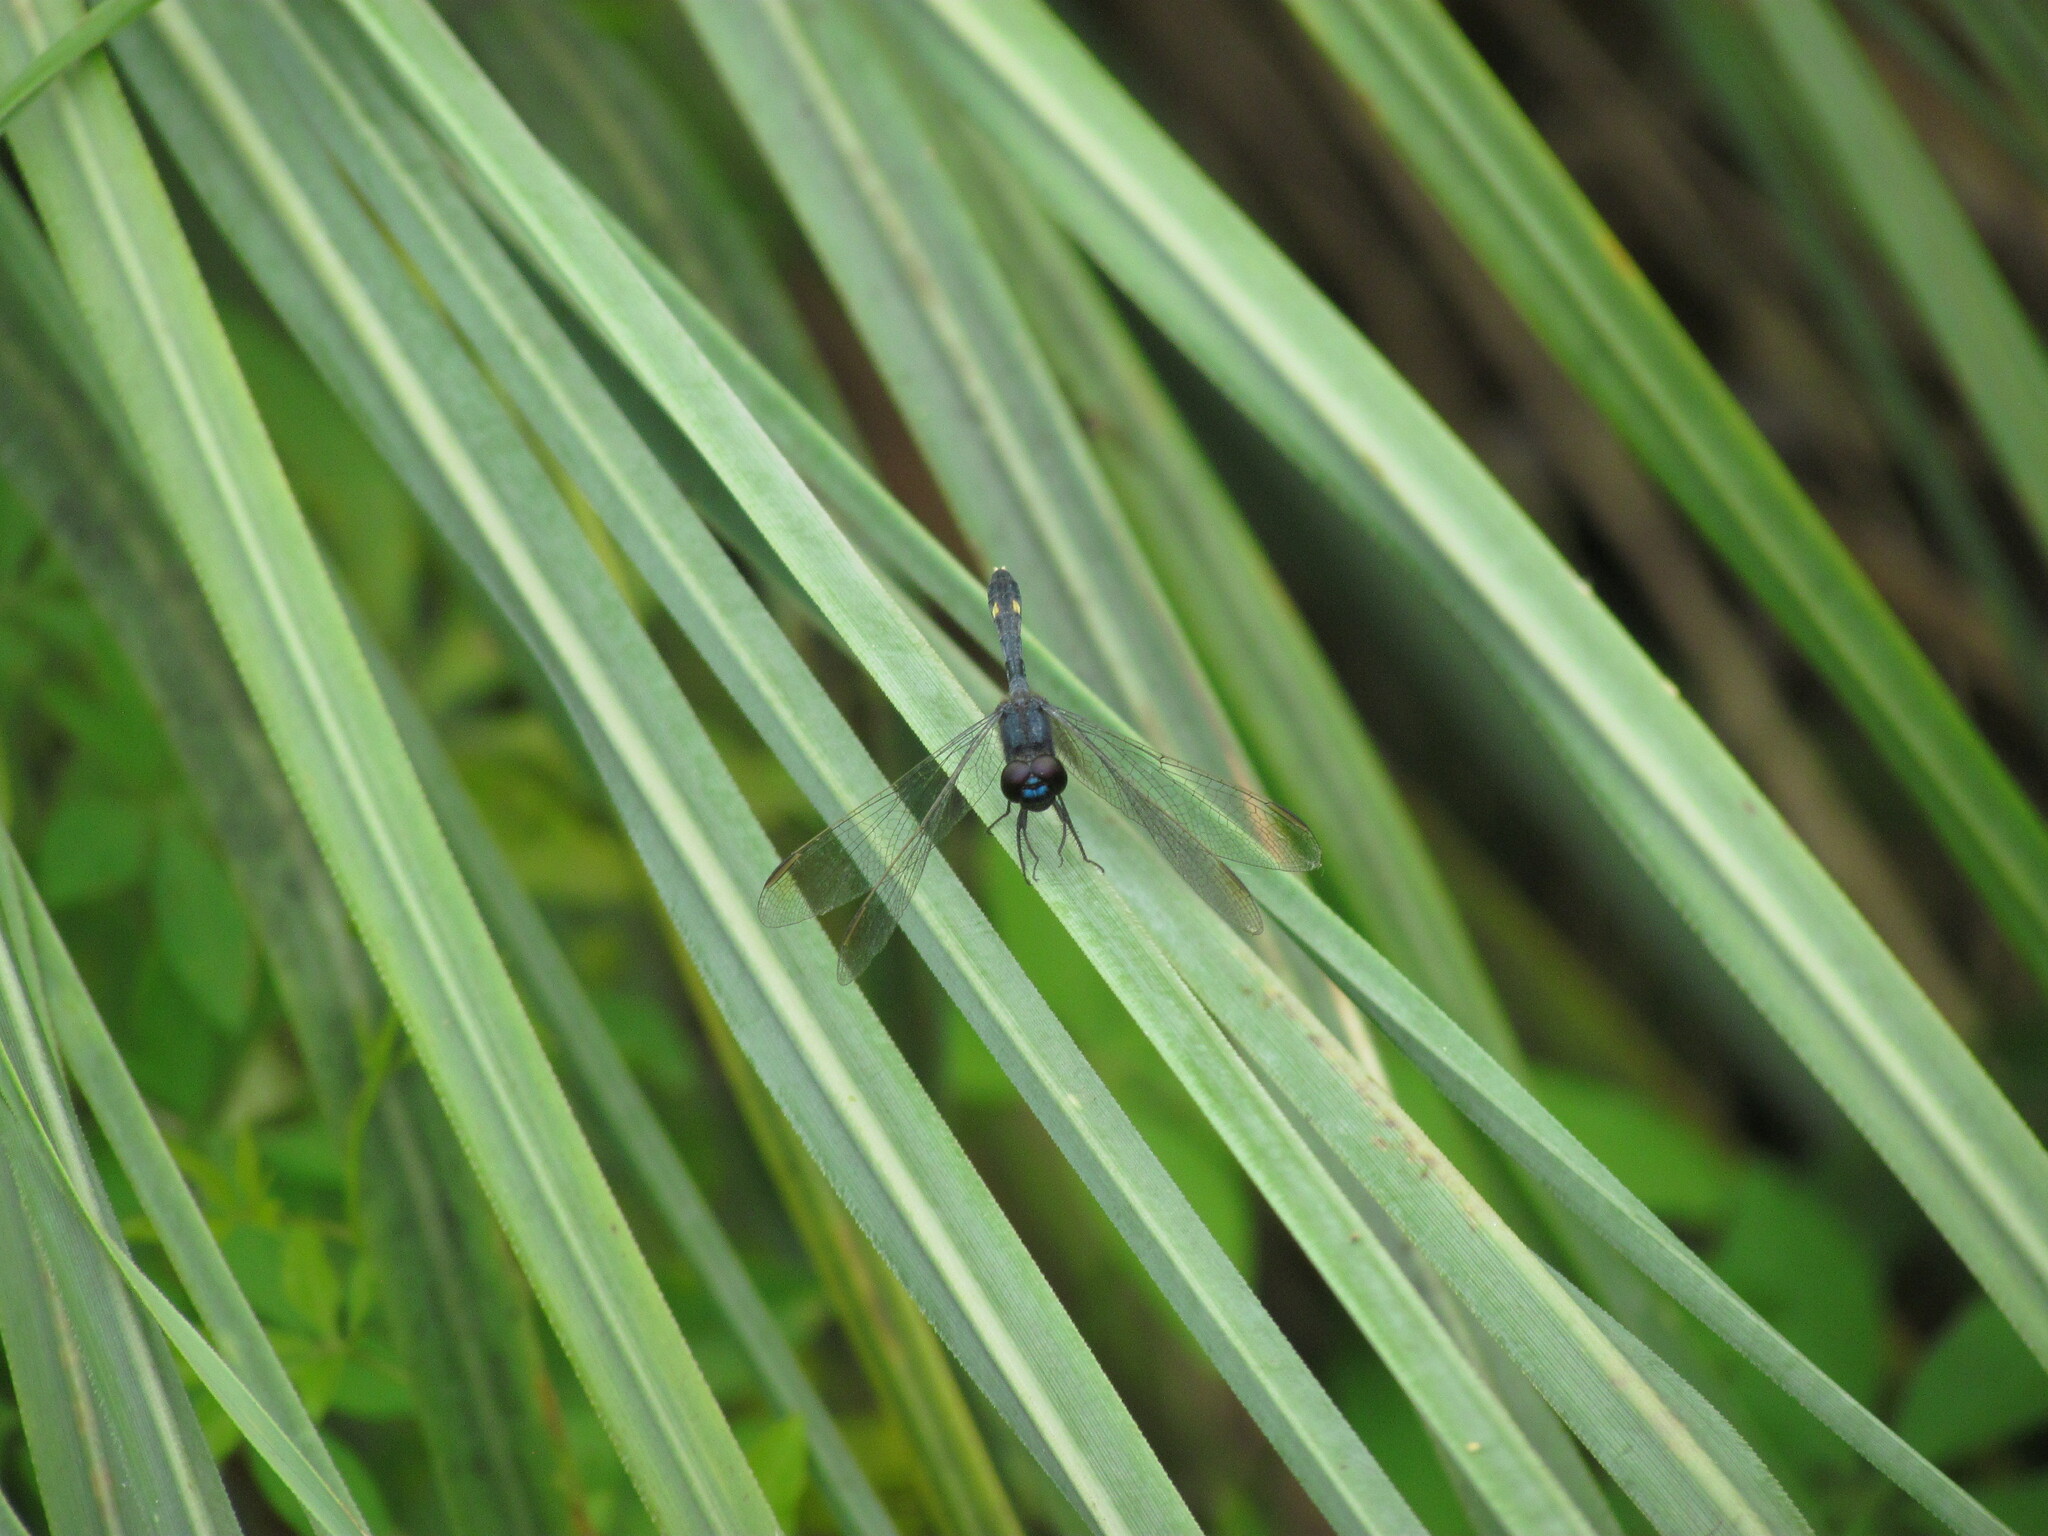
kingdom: Animalia
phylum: Arthropoda
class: Insecta
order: Odonata
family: Libellulidae
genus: Erythrodiplax
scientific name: Erythrodiplax nigricans
